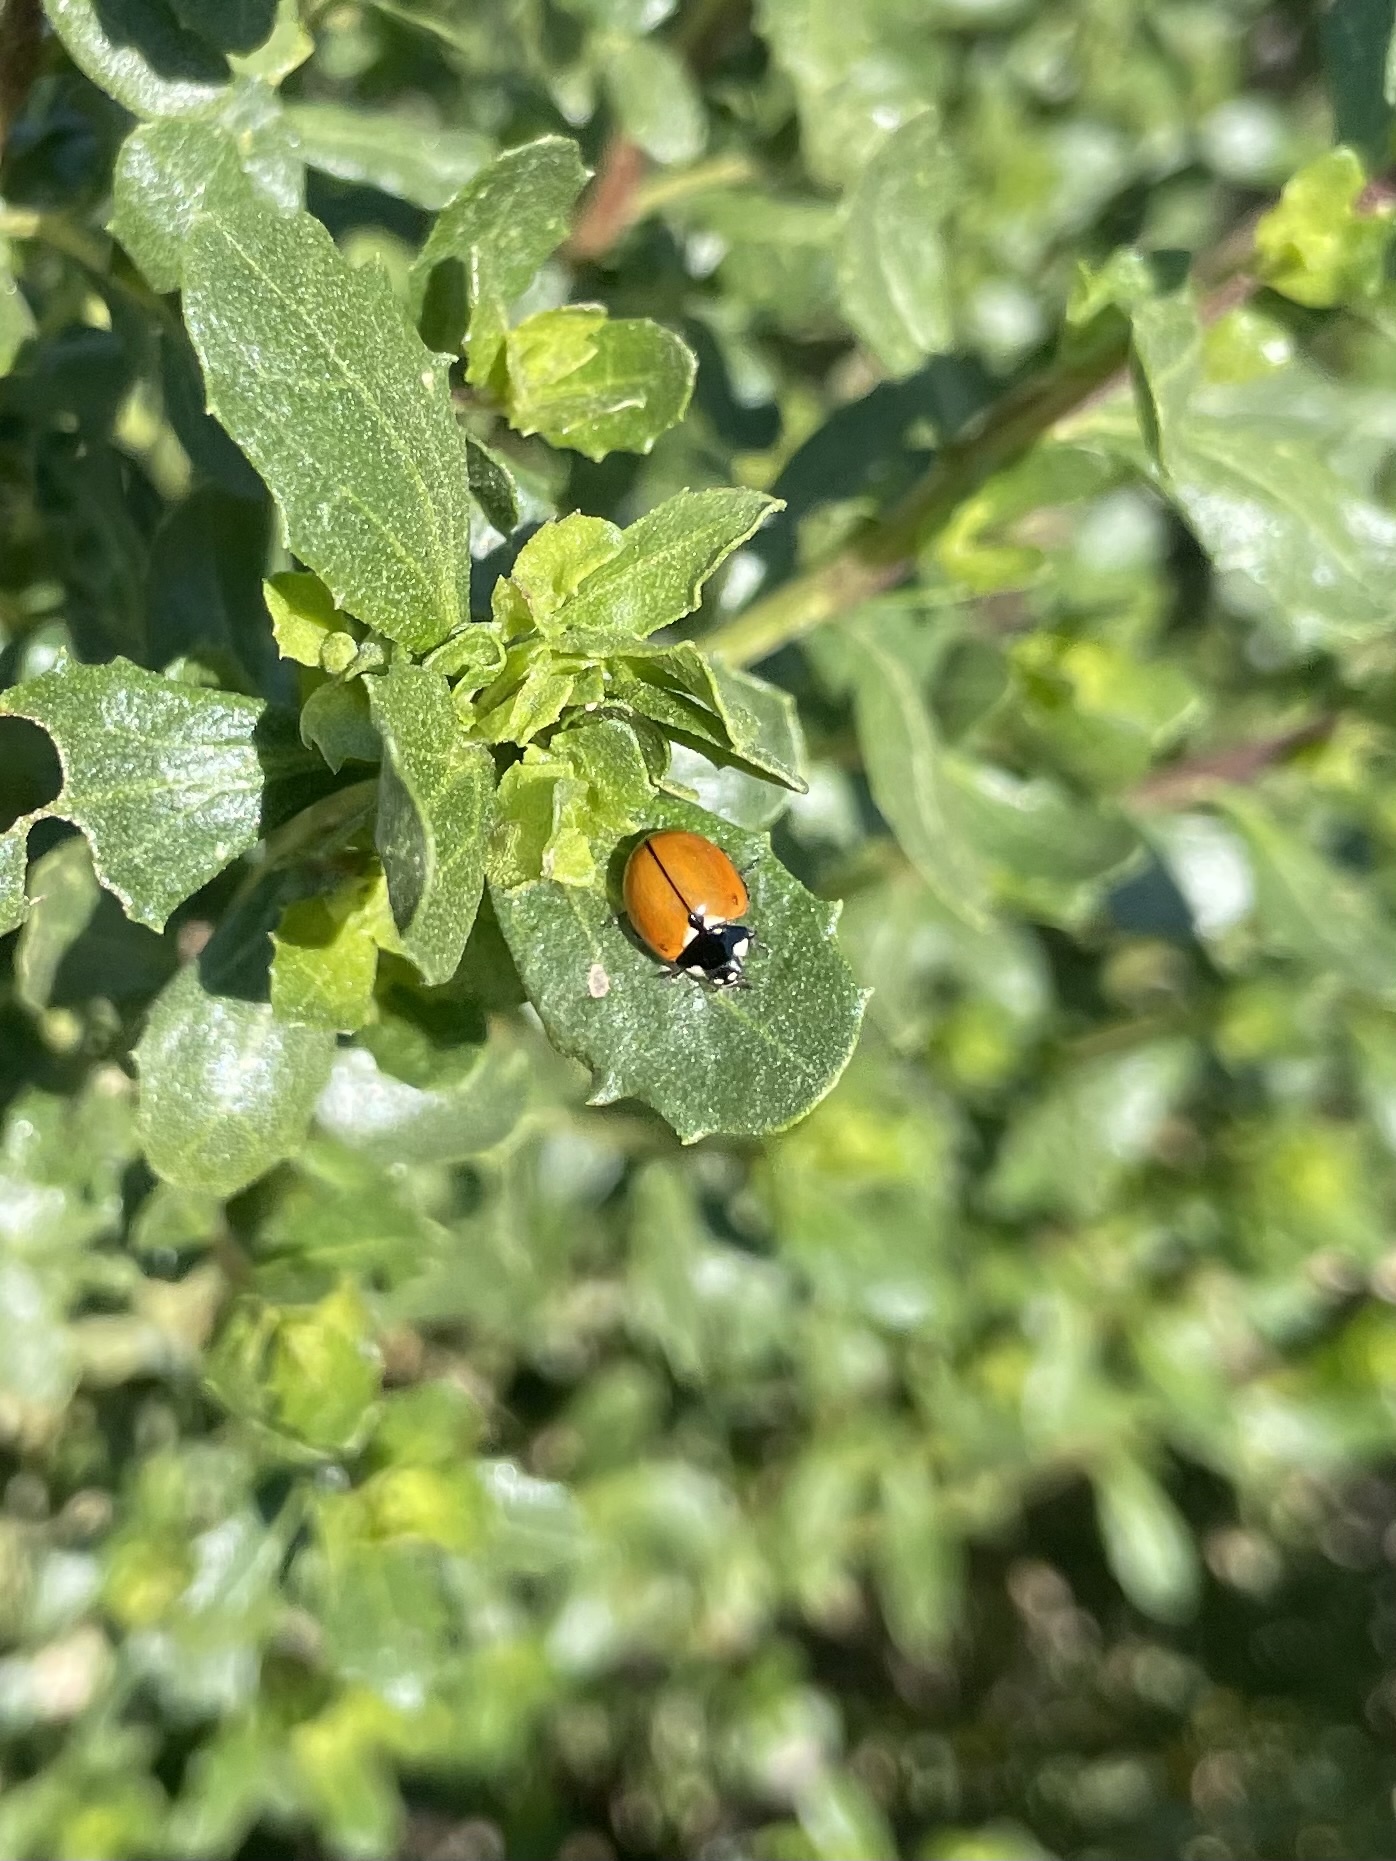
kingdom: Animalia
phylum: Arthropoda
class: Insecta
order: Coleoptera
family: Coccinellidae
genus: Coccinella
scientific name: Coccinella californica
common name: Lady beetle
